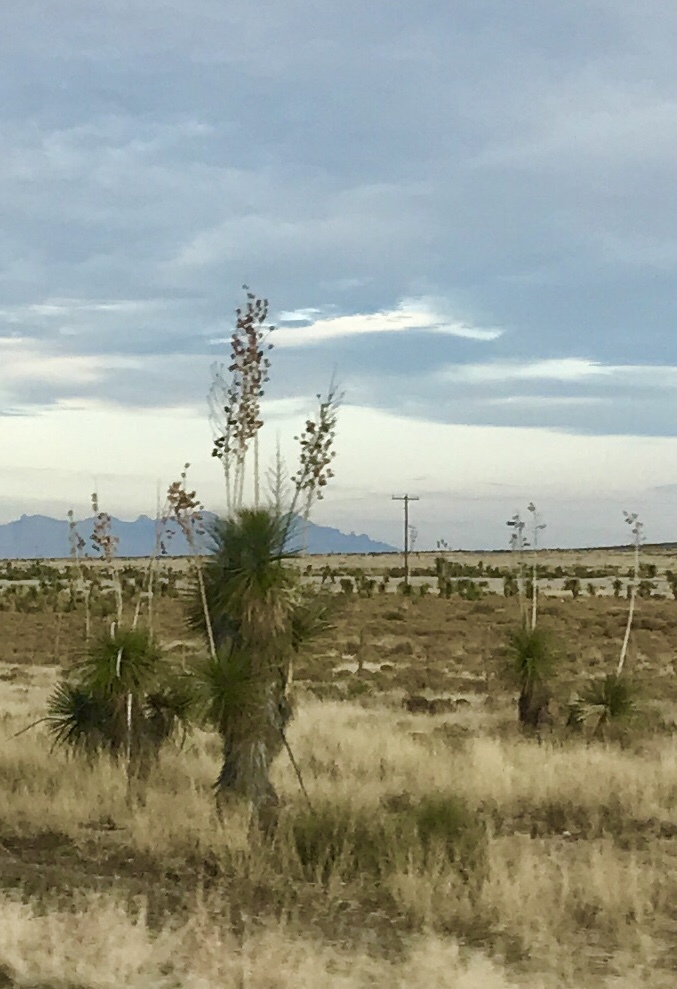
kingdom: Plantae
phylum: Tracheophyta
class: Liliopsida
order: Asparagales
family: Asparagaceae
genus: Yucca
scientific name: Yucca elata
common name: Palmella
